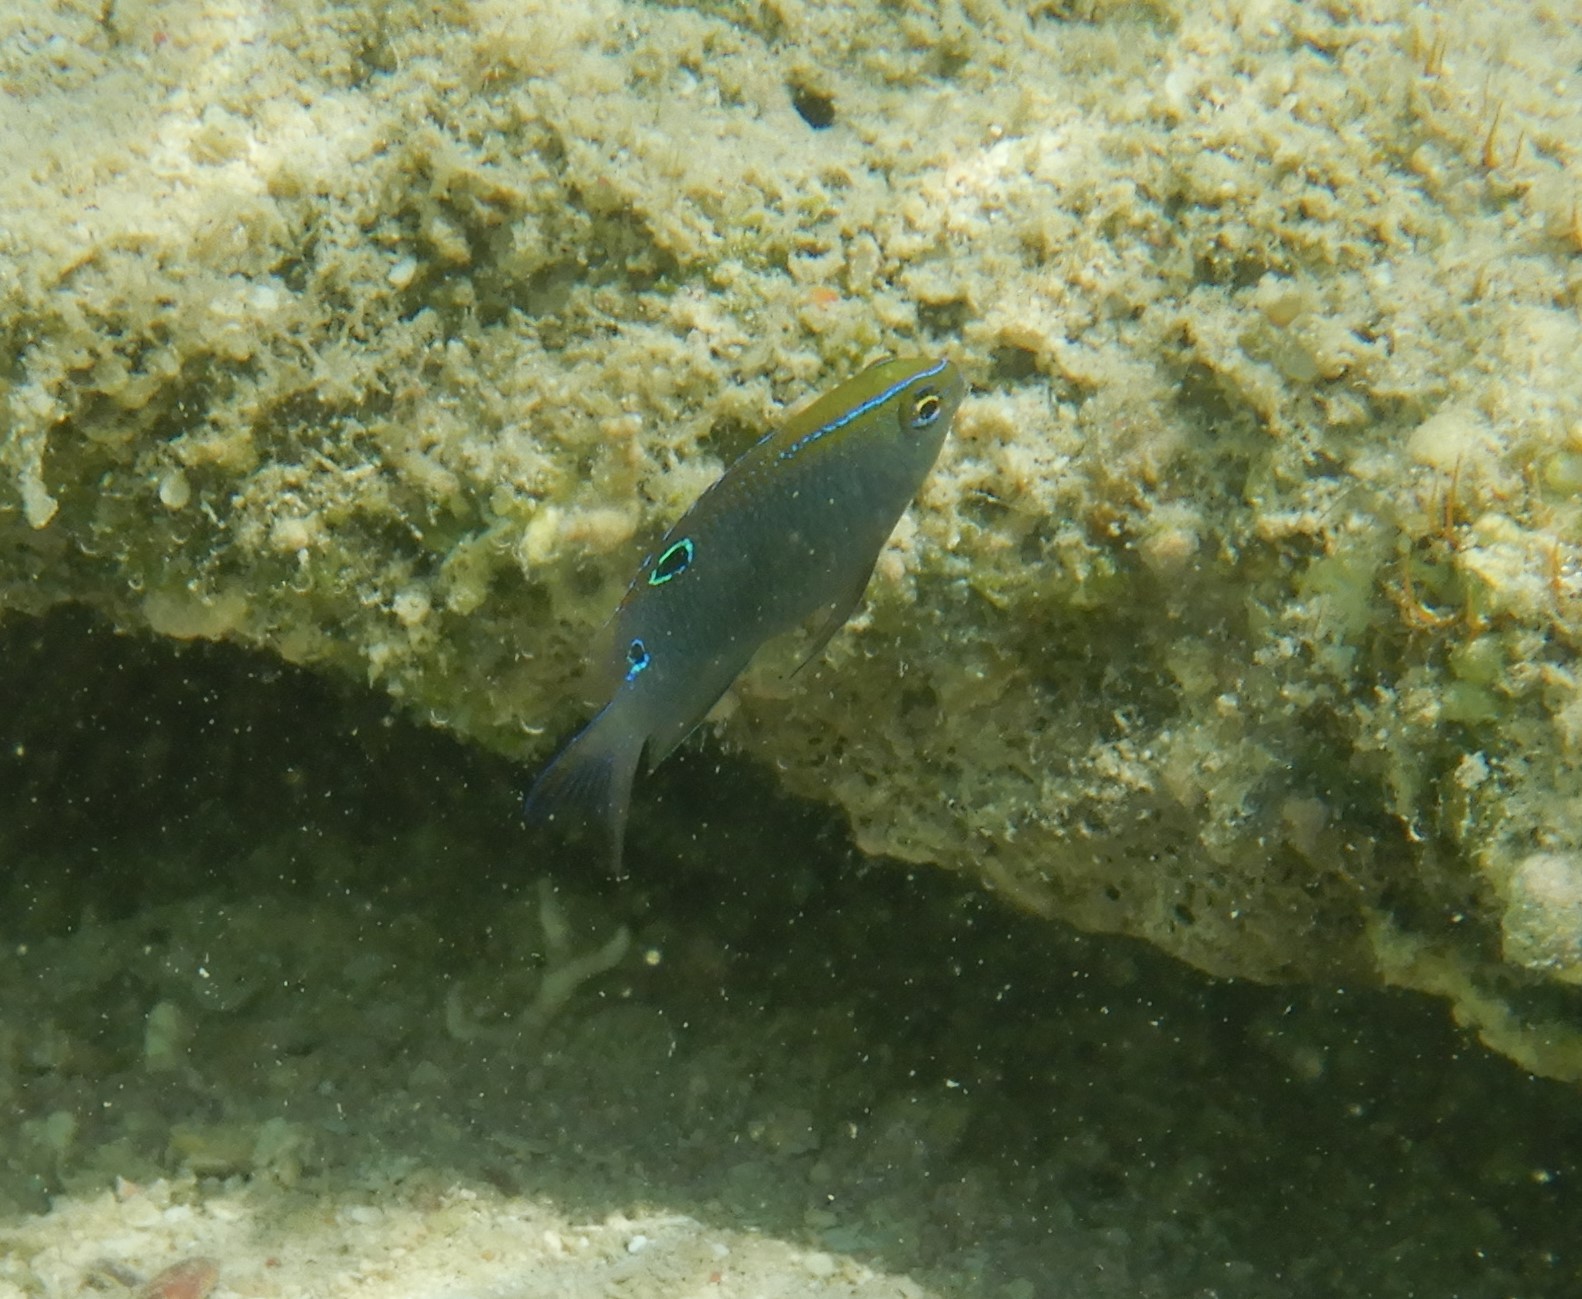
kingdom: Animalia
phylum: Chordata
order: Perciformes
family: Pomacentridae
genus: Chrysiptera
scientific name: Chrysiptera unimaculata
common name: Onespot demoiselle
